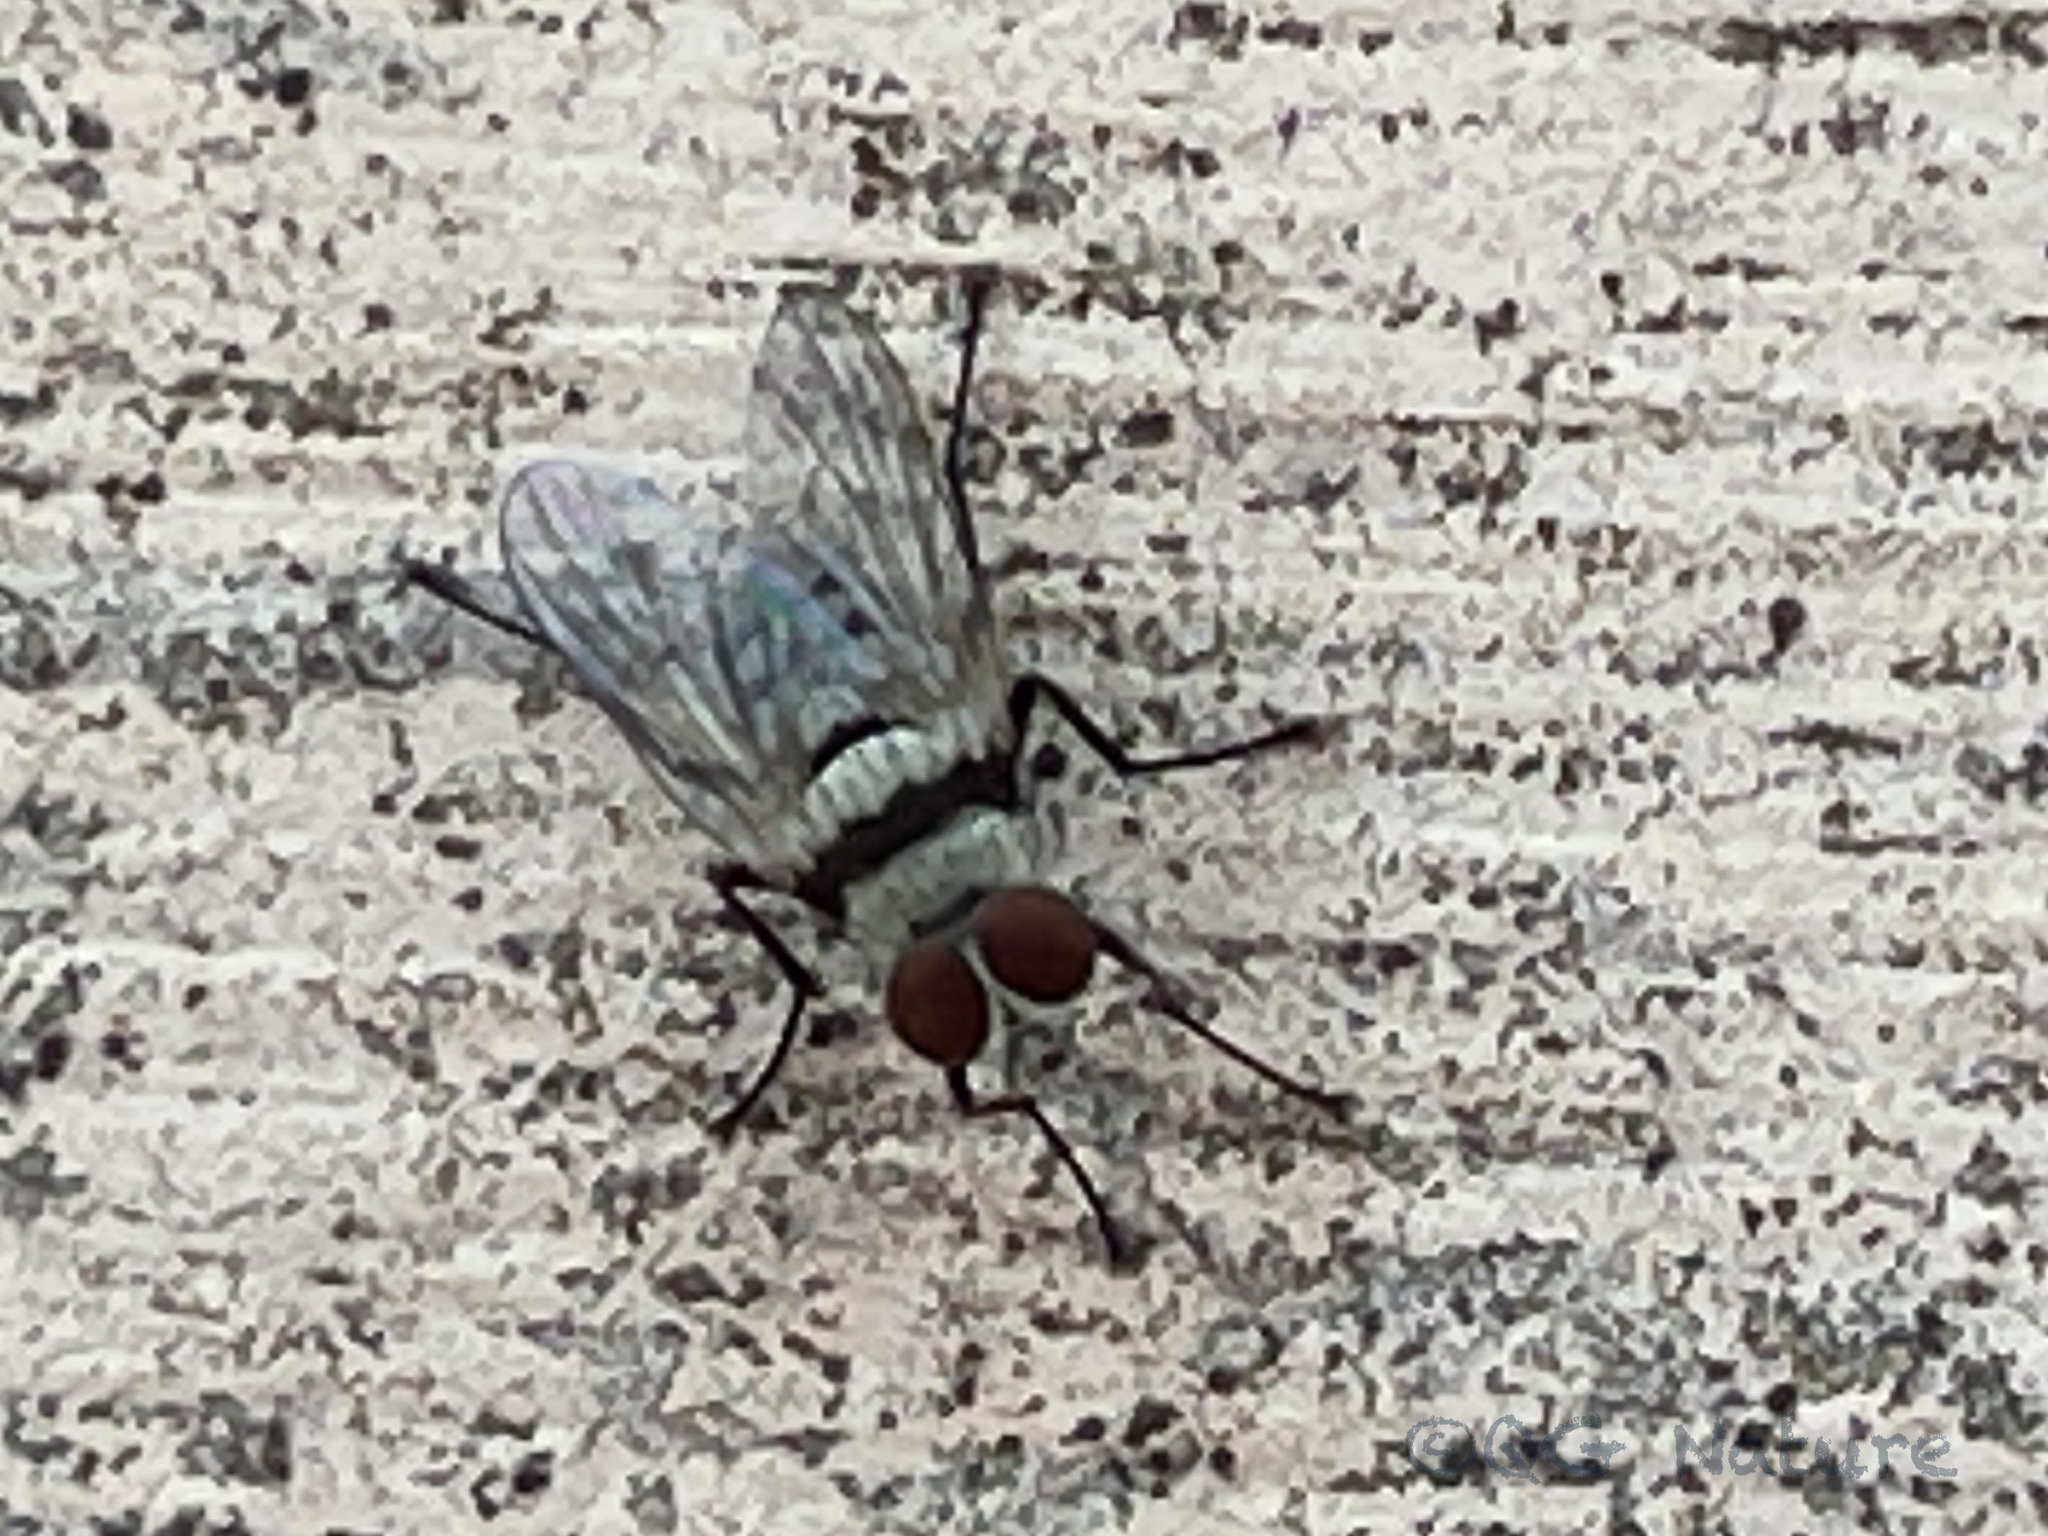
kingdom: Animalia
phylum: Arthropoda
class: Insecta
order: Diptera
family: Anthomyiidae
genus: Anthomyia
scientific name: Anthomyia illocata
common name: Fly
